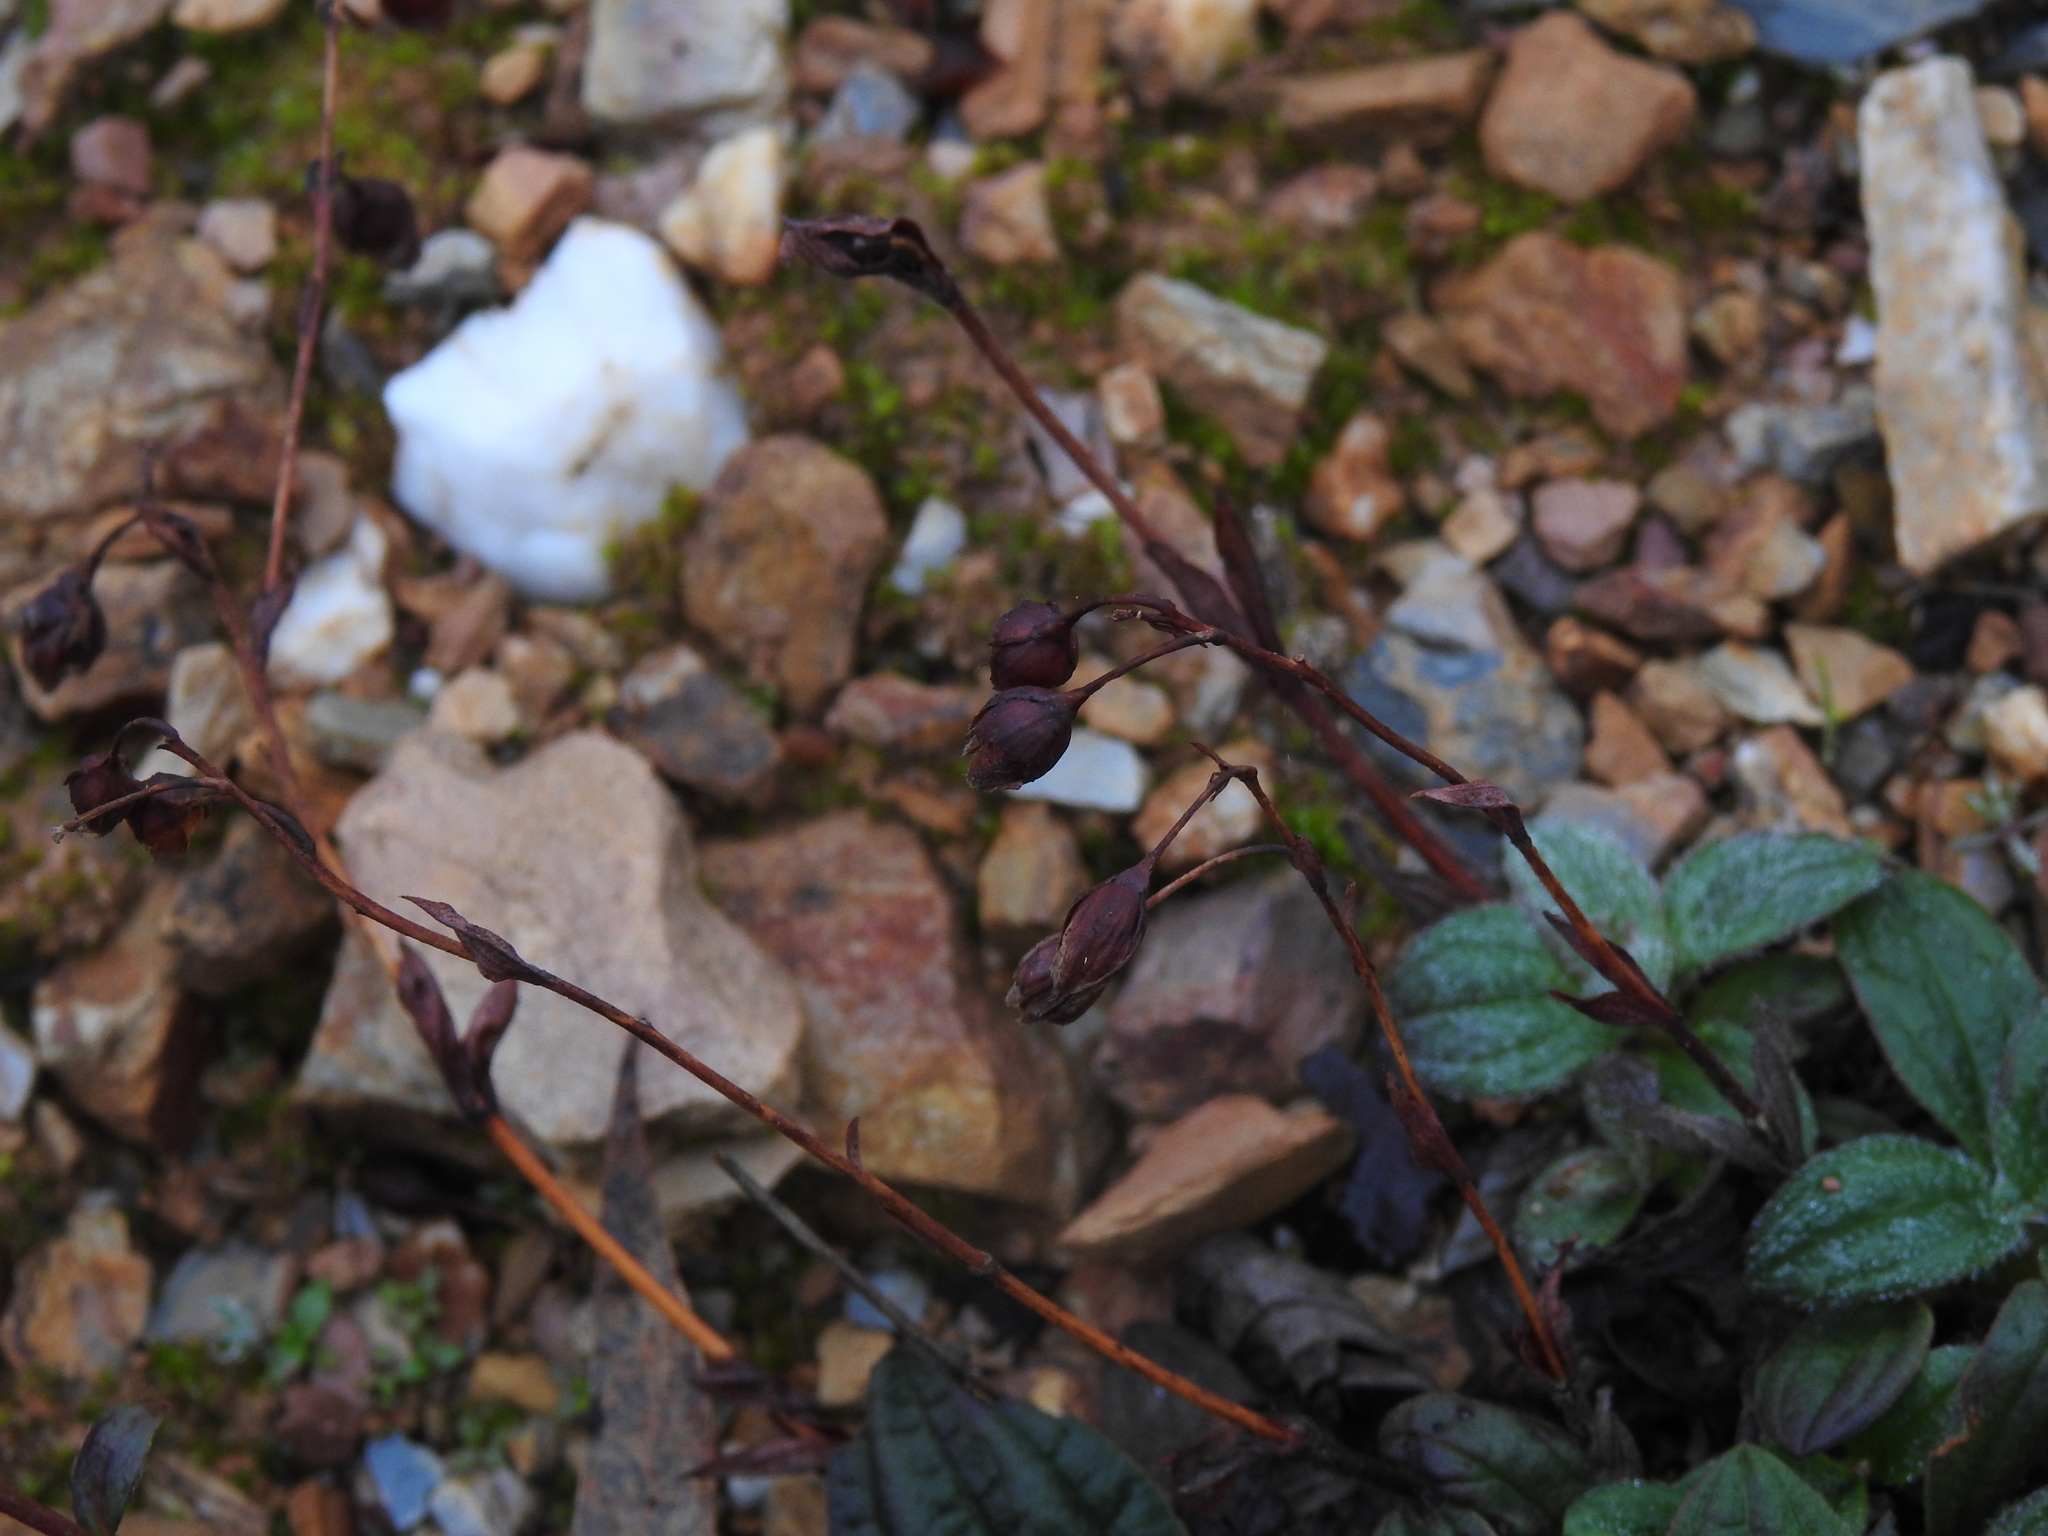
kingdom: Plantae
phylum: Tracheophyta
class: Magnoliopsida
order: Malvales
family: Cistaceae
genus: Tuberaria
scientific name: Tuberaria lignosa
